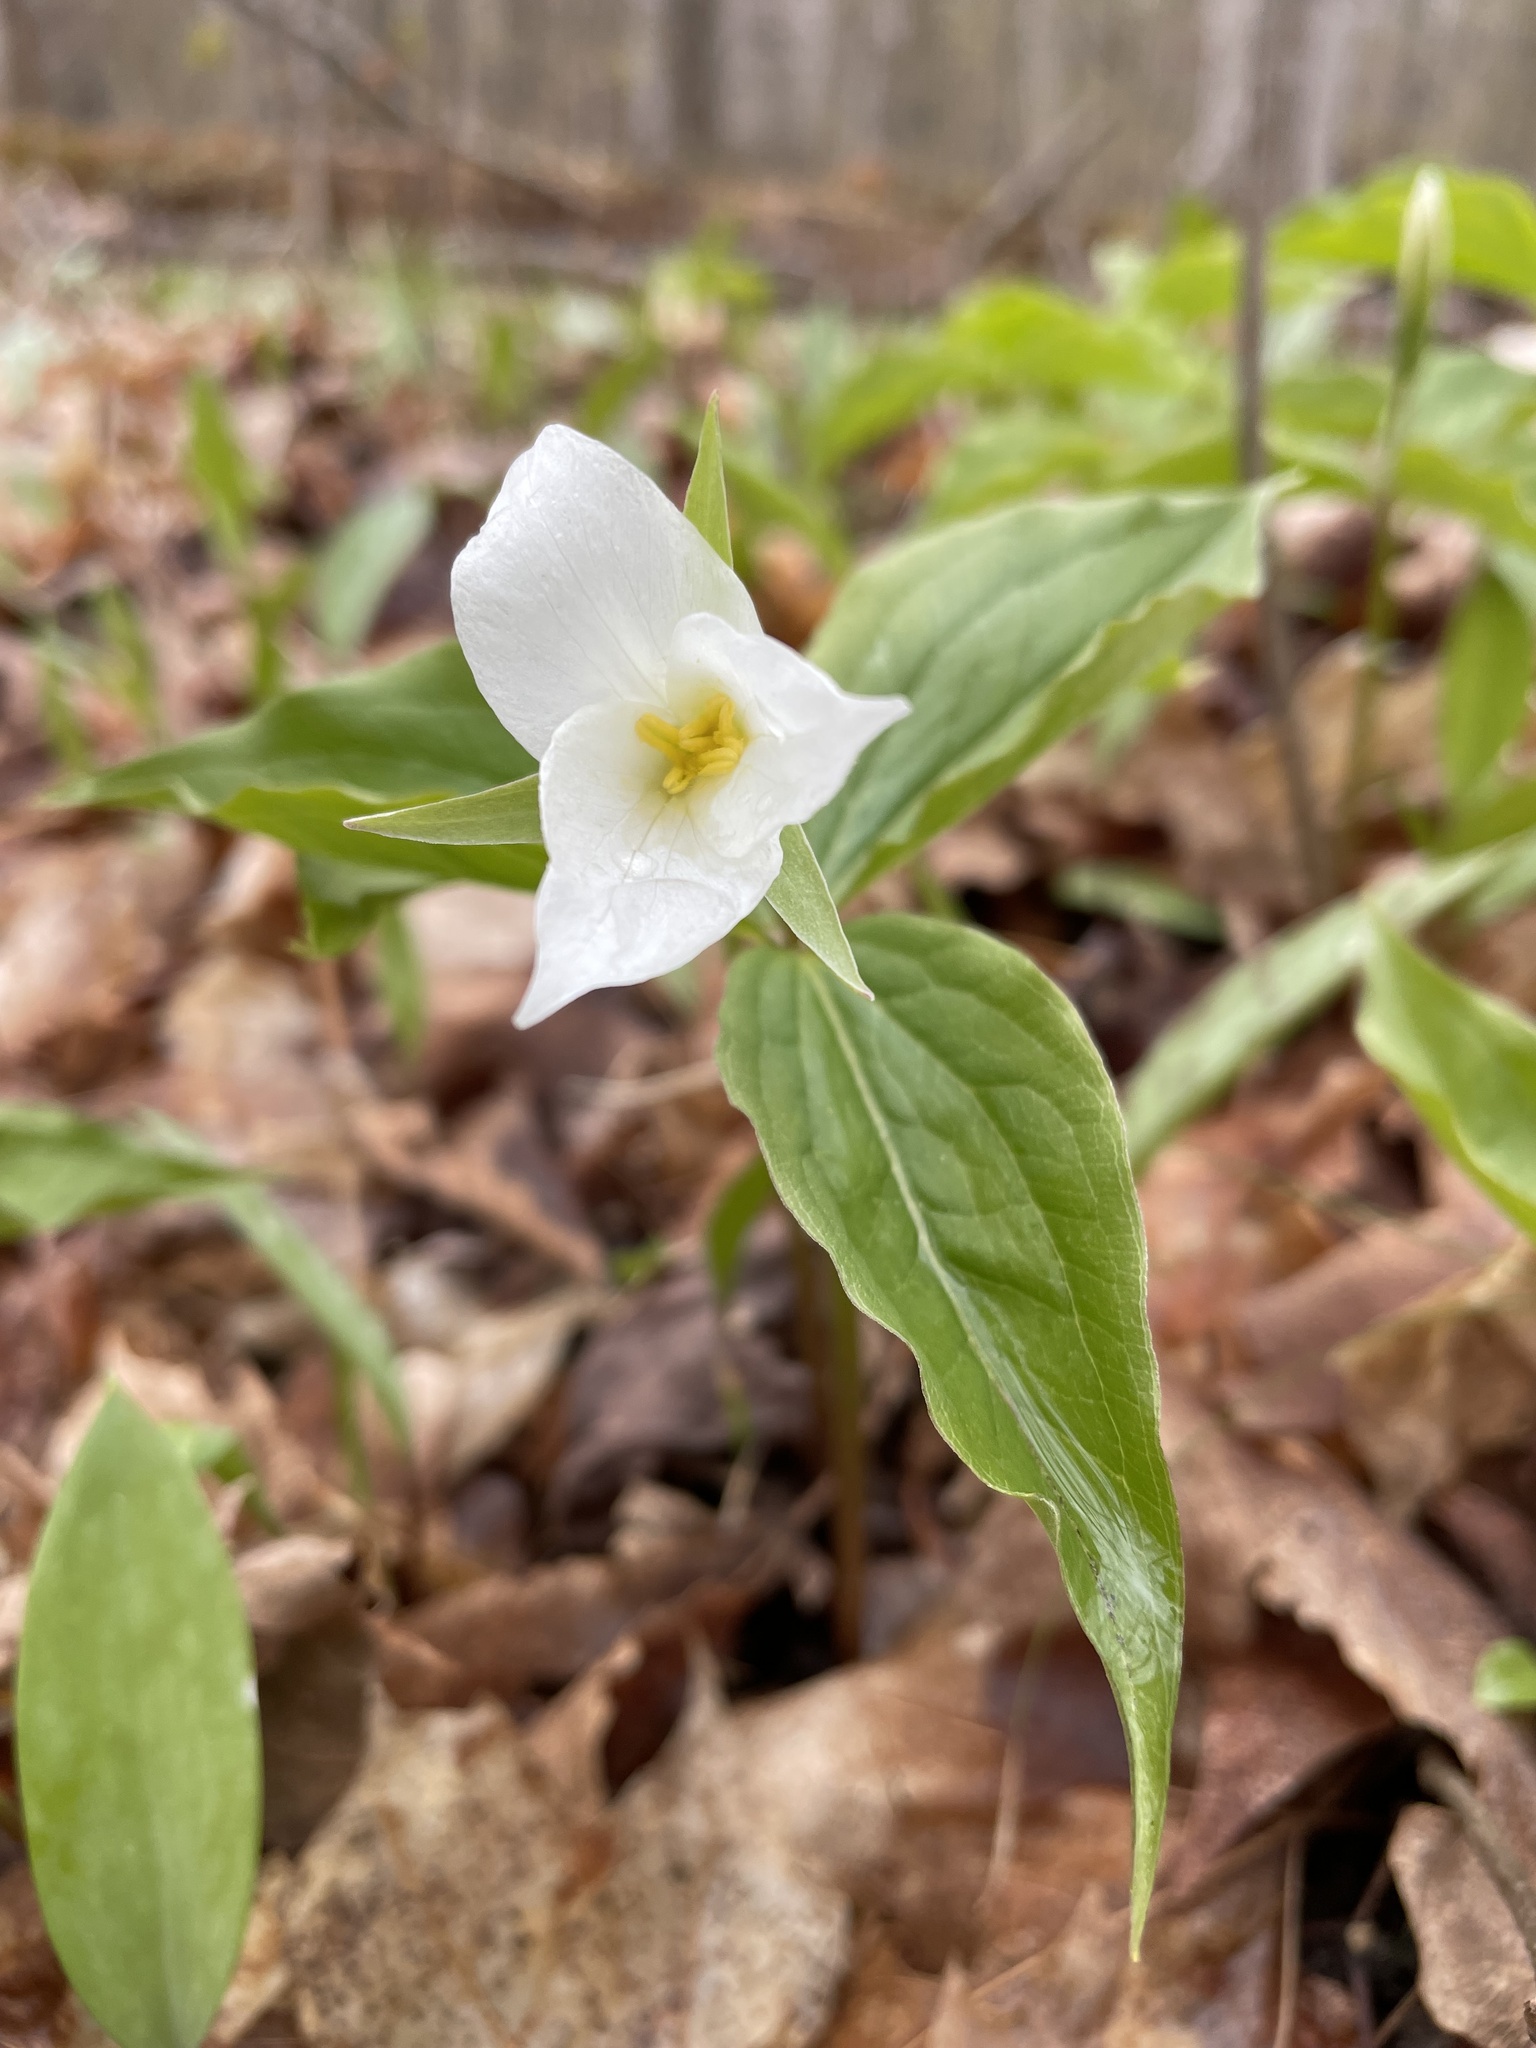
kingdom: Plantae
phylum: Tracheophyta
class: Liliopsida
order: Liliales
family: Melanthiaceae
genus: Trillium
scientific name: Trillium grandiflorum
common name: Great white trillium
